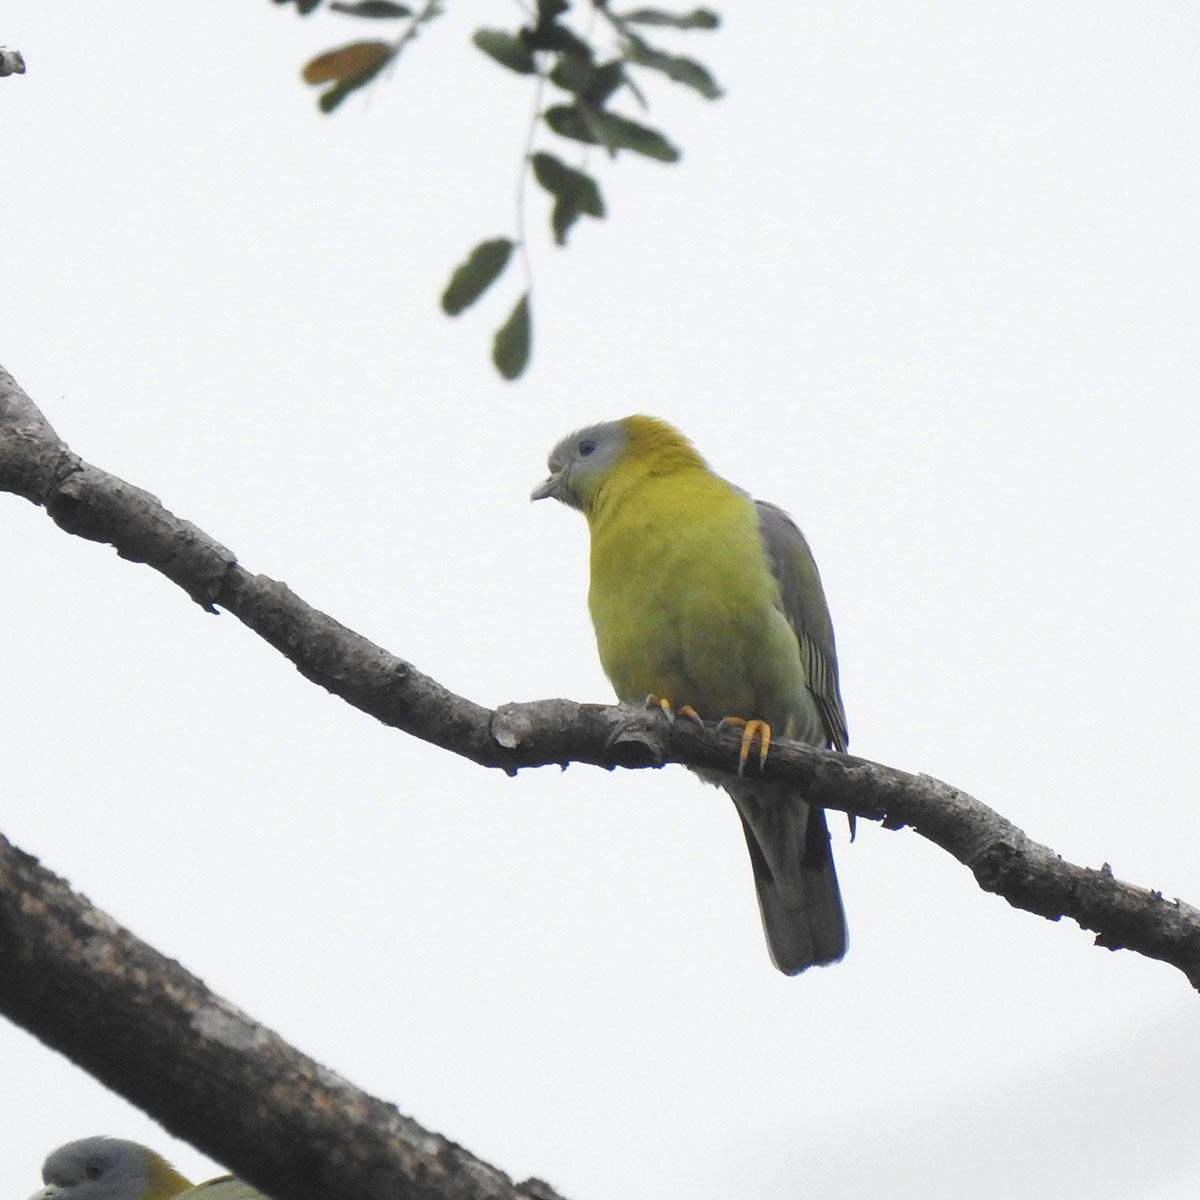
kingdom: Animalia
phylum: Chordata
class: Aves
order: Columbiformes
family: Columbidae
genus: Treron
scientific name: Treron phoenicopterus
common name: Yellow-footed green pigeon
